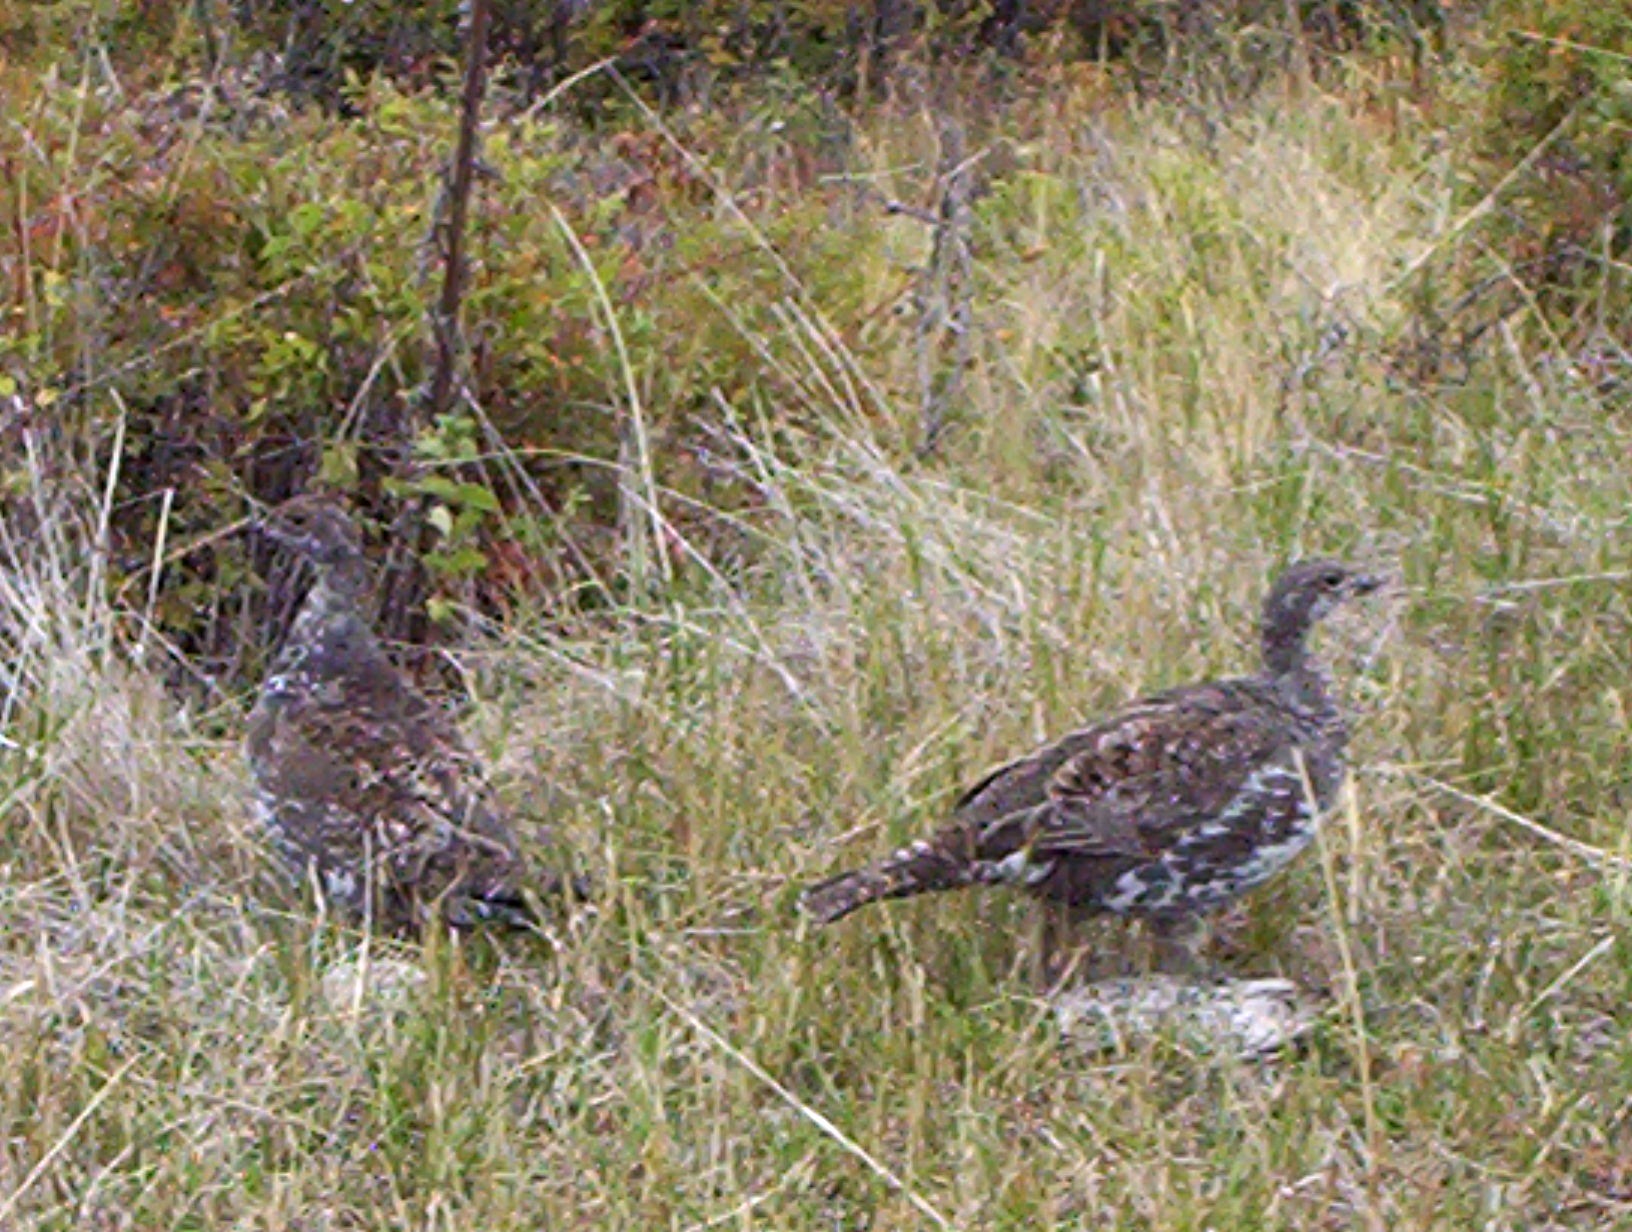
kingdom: Animalia
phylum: Chordata
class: Aves
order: Galliformes
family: Phasianidae
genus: Dendragapus
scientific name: Dendragapus obscurus
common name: Dusky grouse
